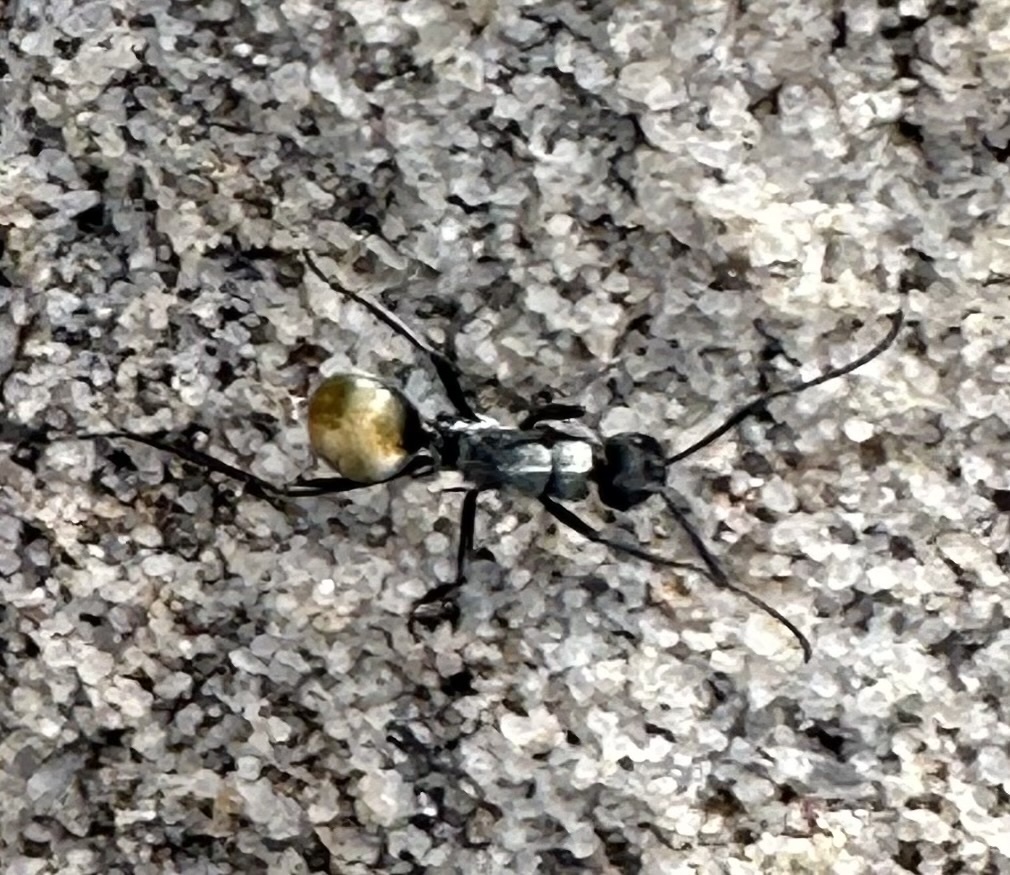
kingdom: Animalia
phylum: Arthropoda
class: Insecta
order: Hymenoptera
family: Formicidae
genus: Polyrhachis
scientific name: Polyrhachis ammon
